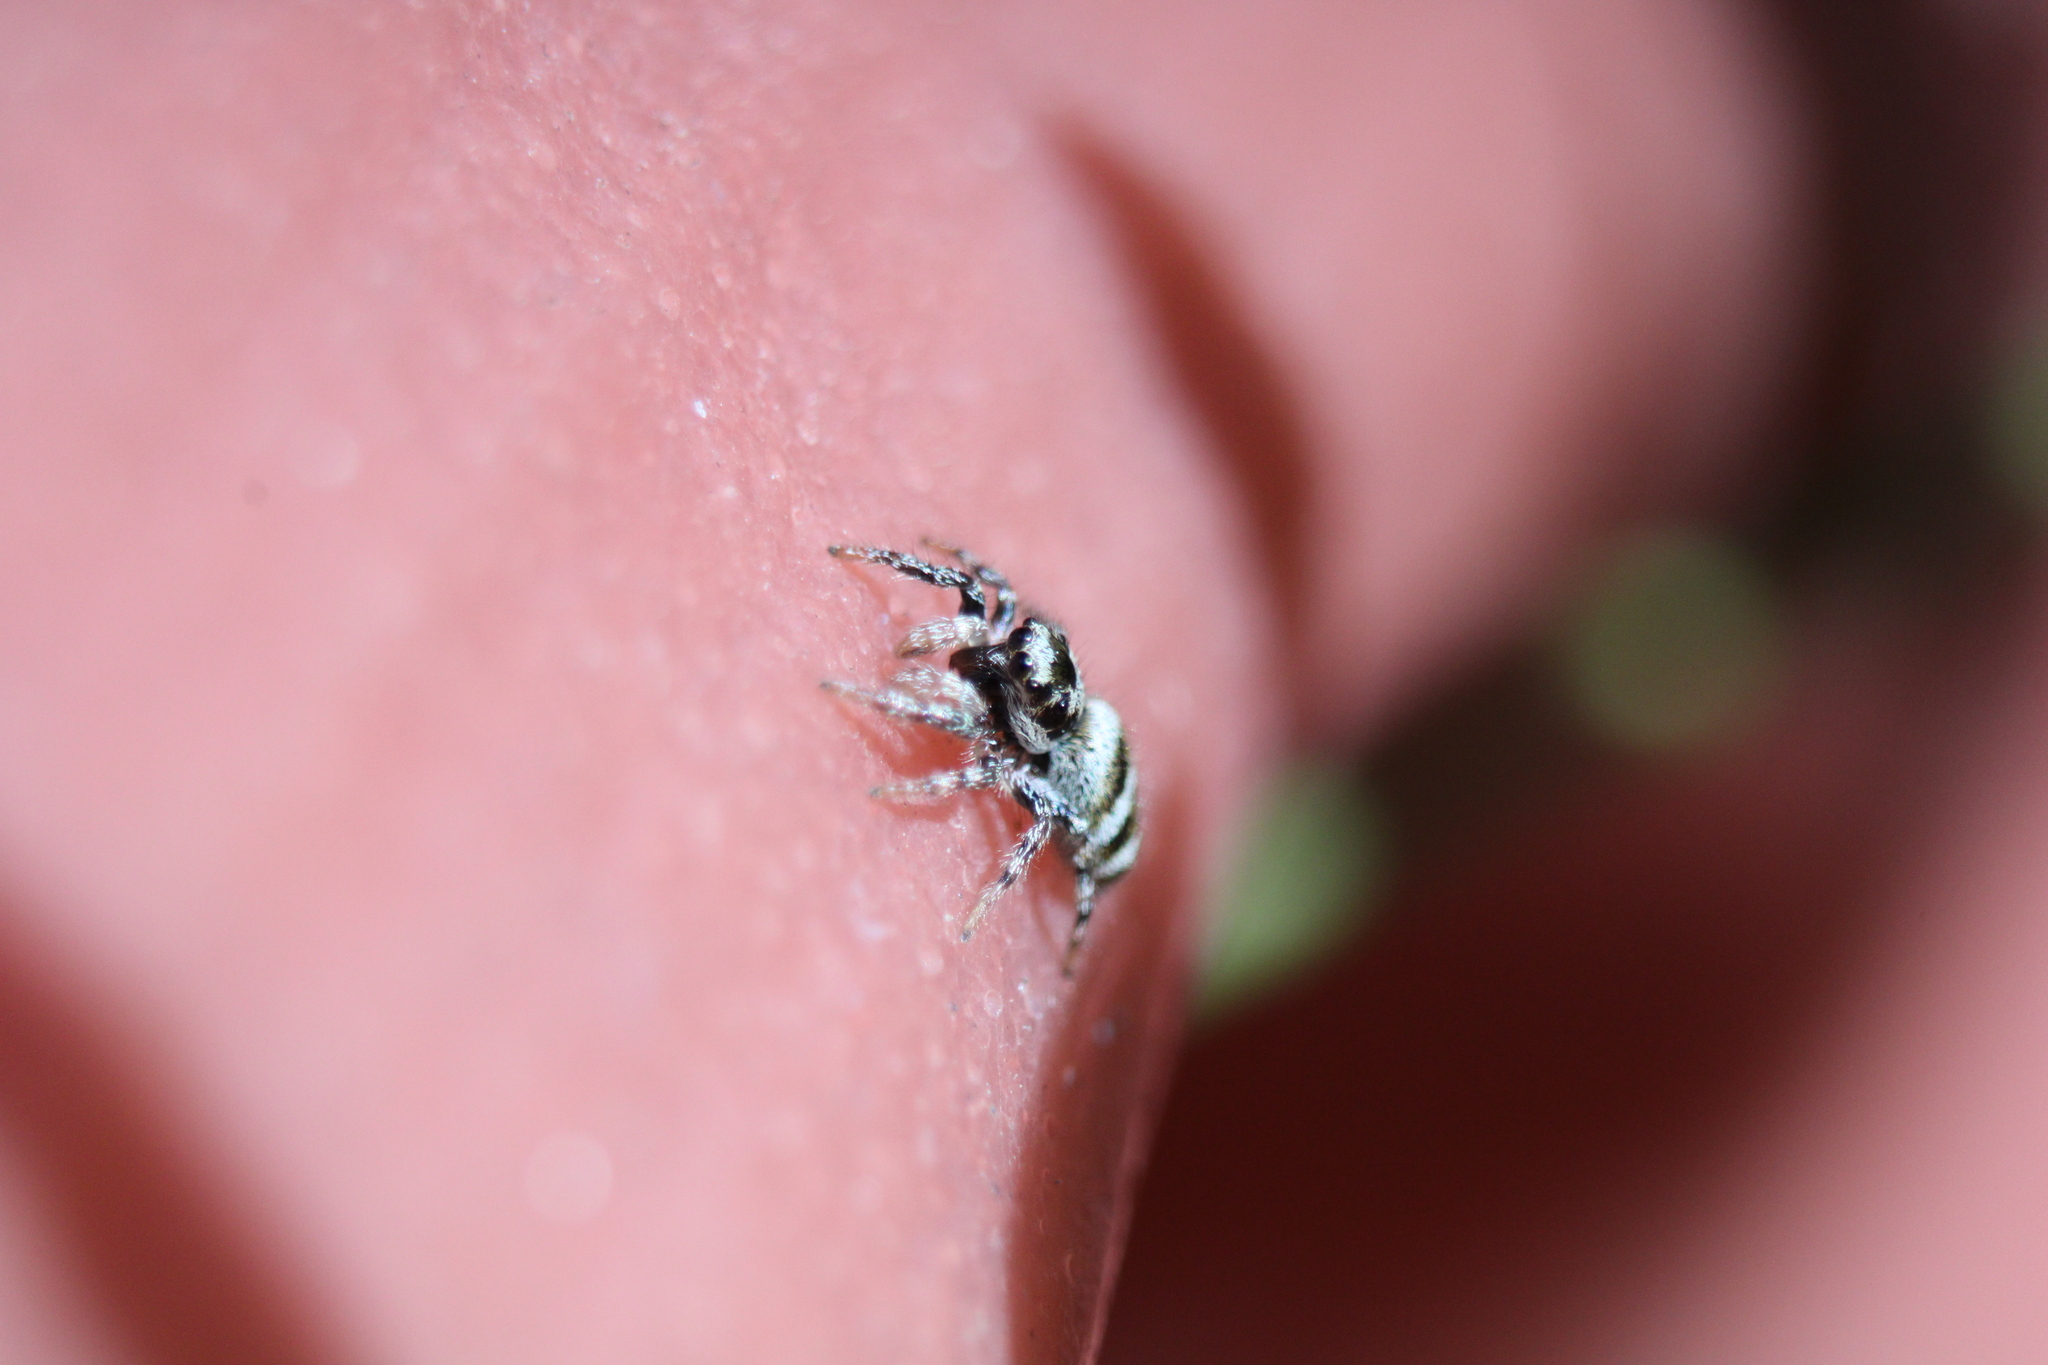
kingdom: Animalia
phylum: Arthropoda
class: Arachnida
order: Araneae
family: Salticidae
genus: Salticus
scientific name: Salticus scenicus
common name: Zebra jumper
